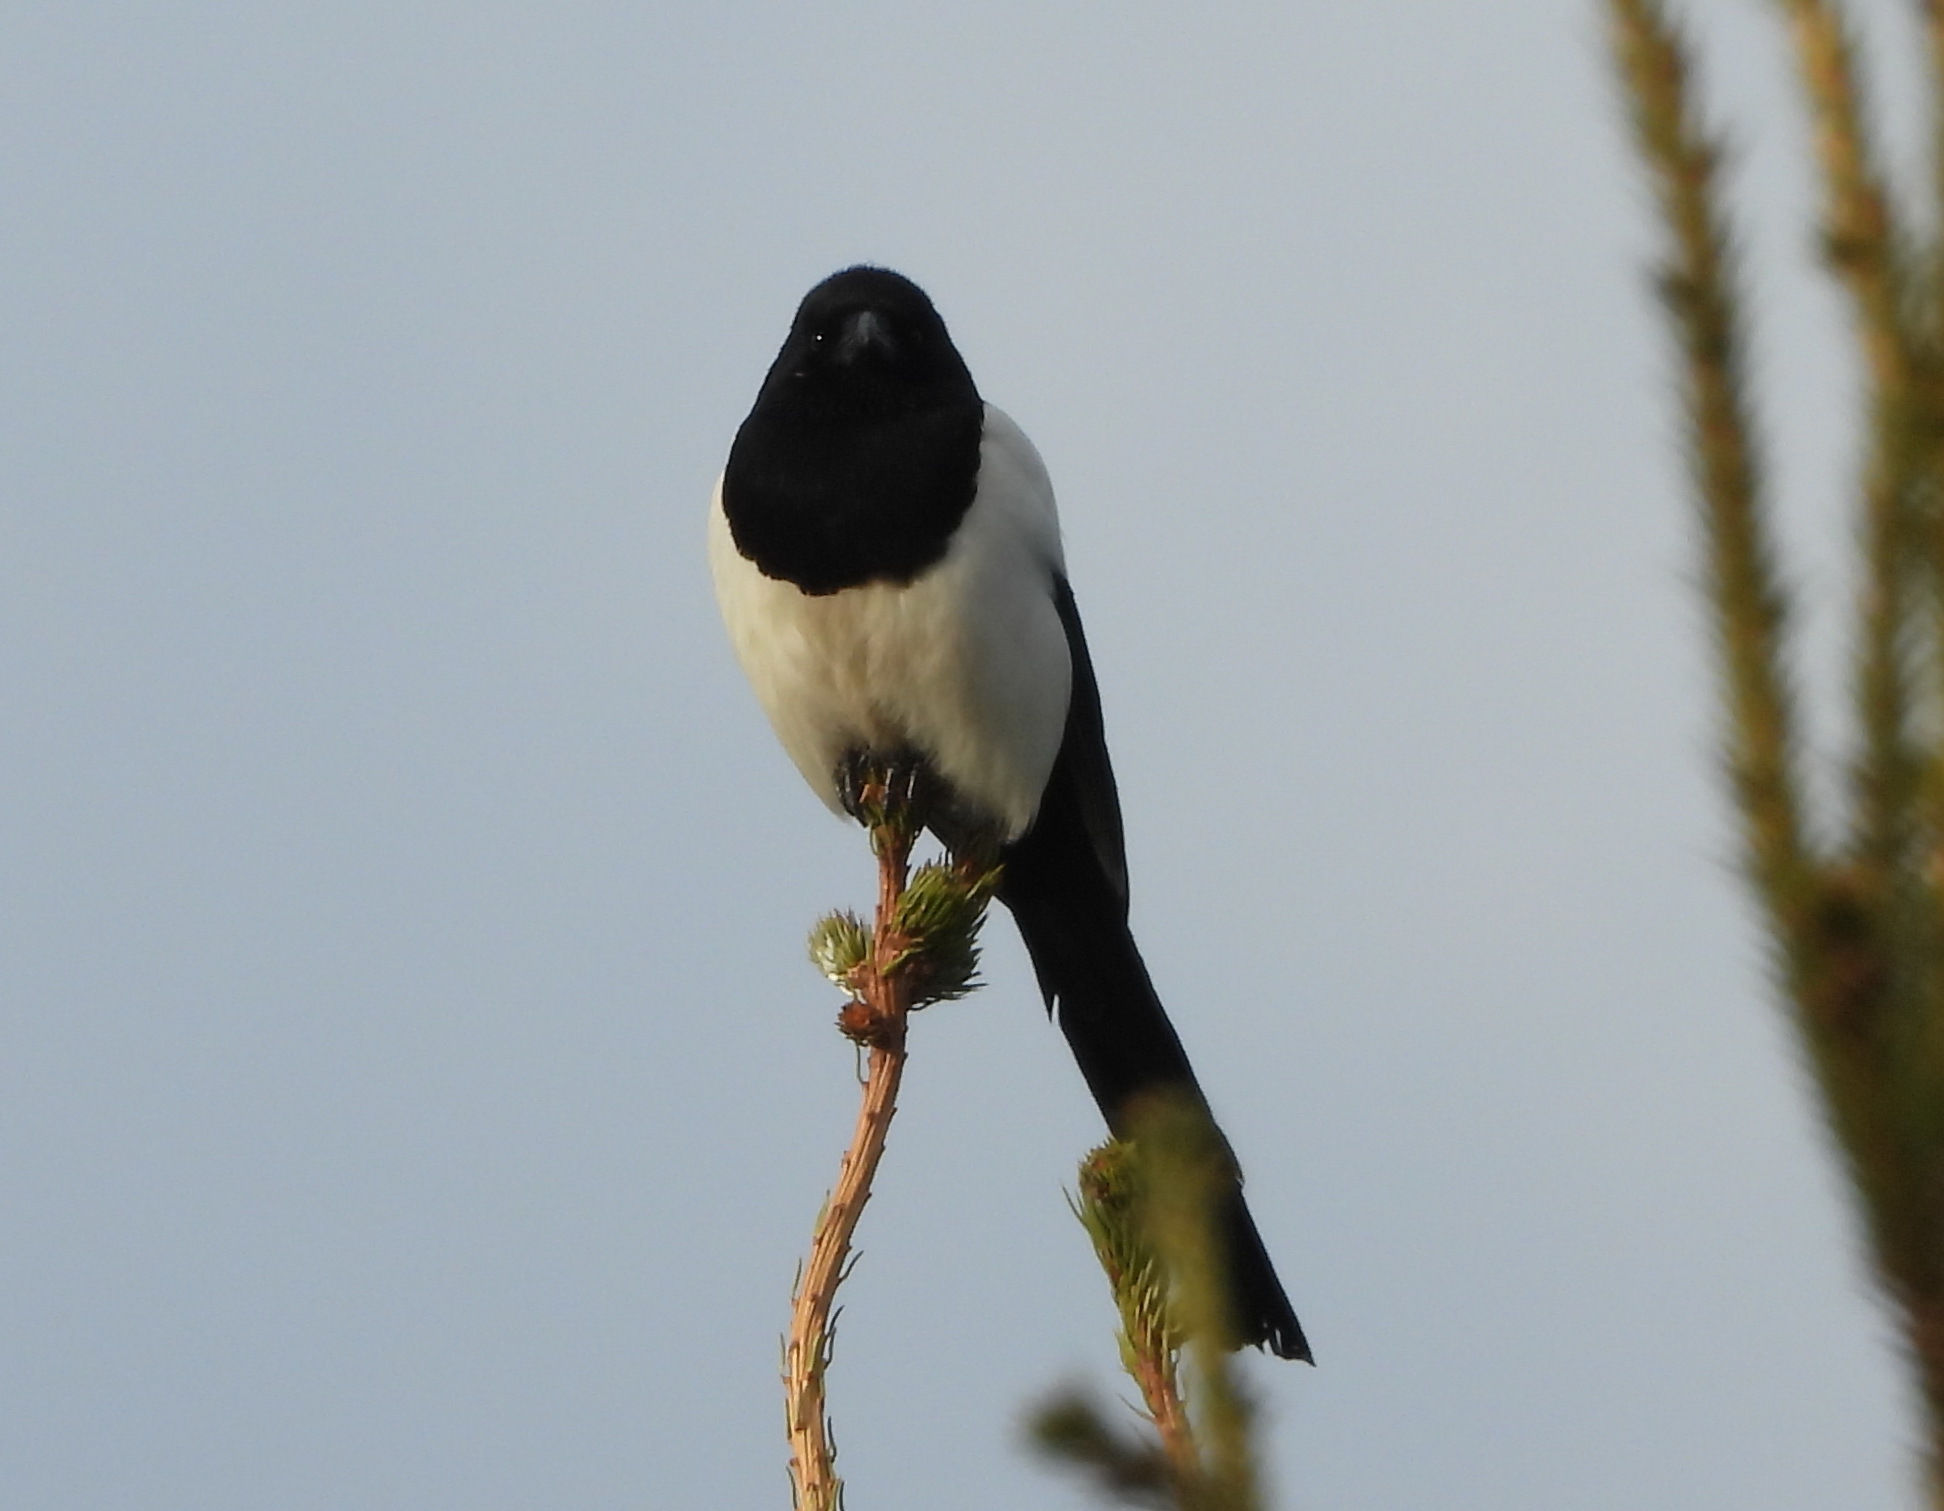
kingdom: Animalia
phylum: Chordata
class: Aves
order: Passeriformes
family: Corvidae
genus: Pica
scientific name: Pica pica
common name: Eurasian magpie
